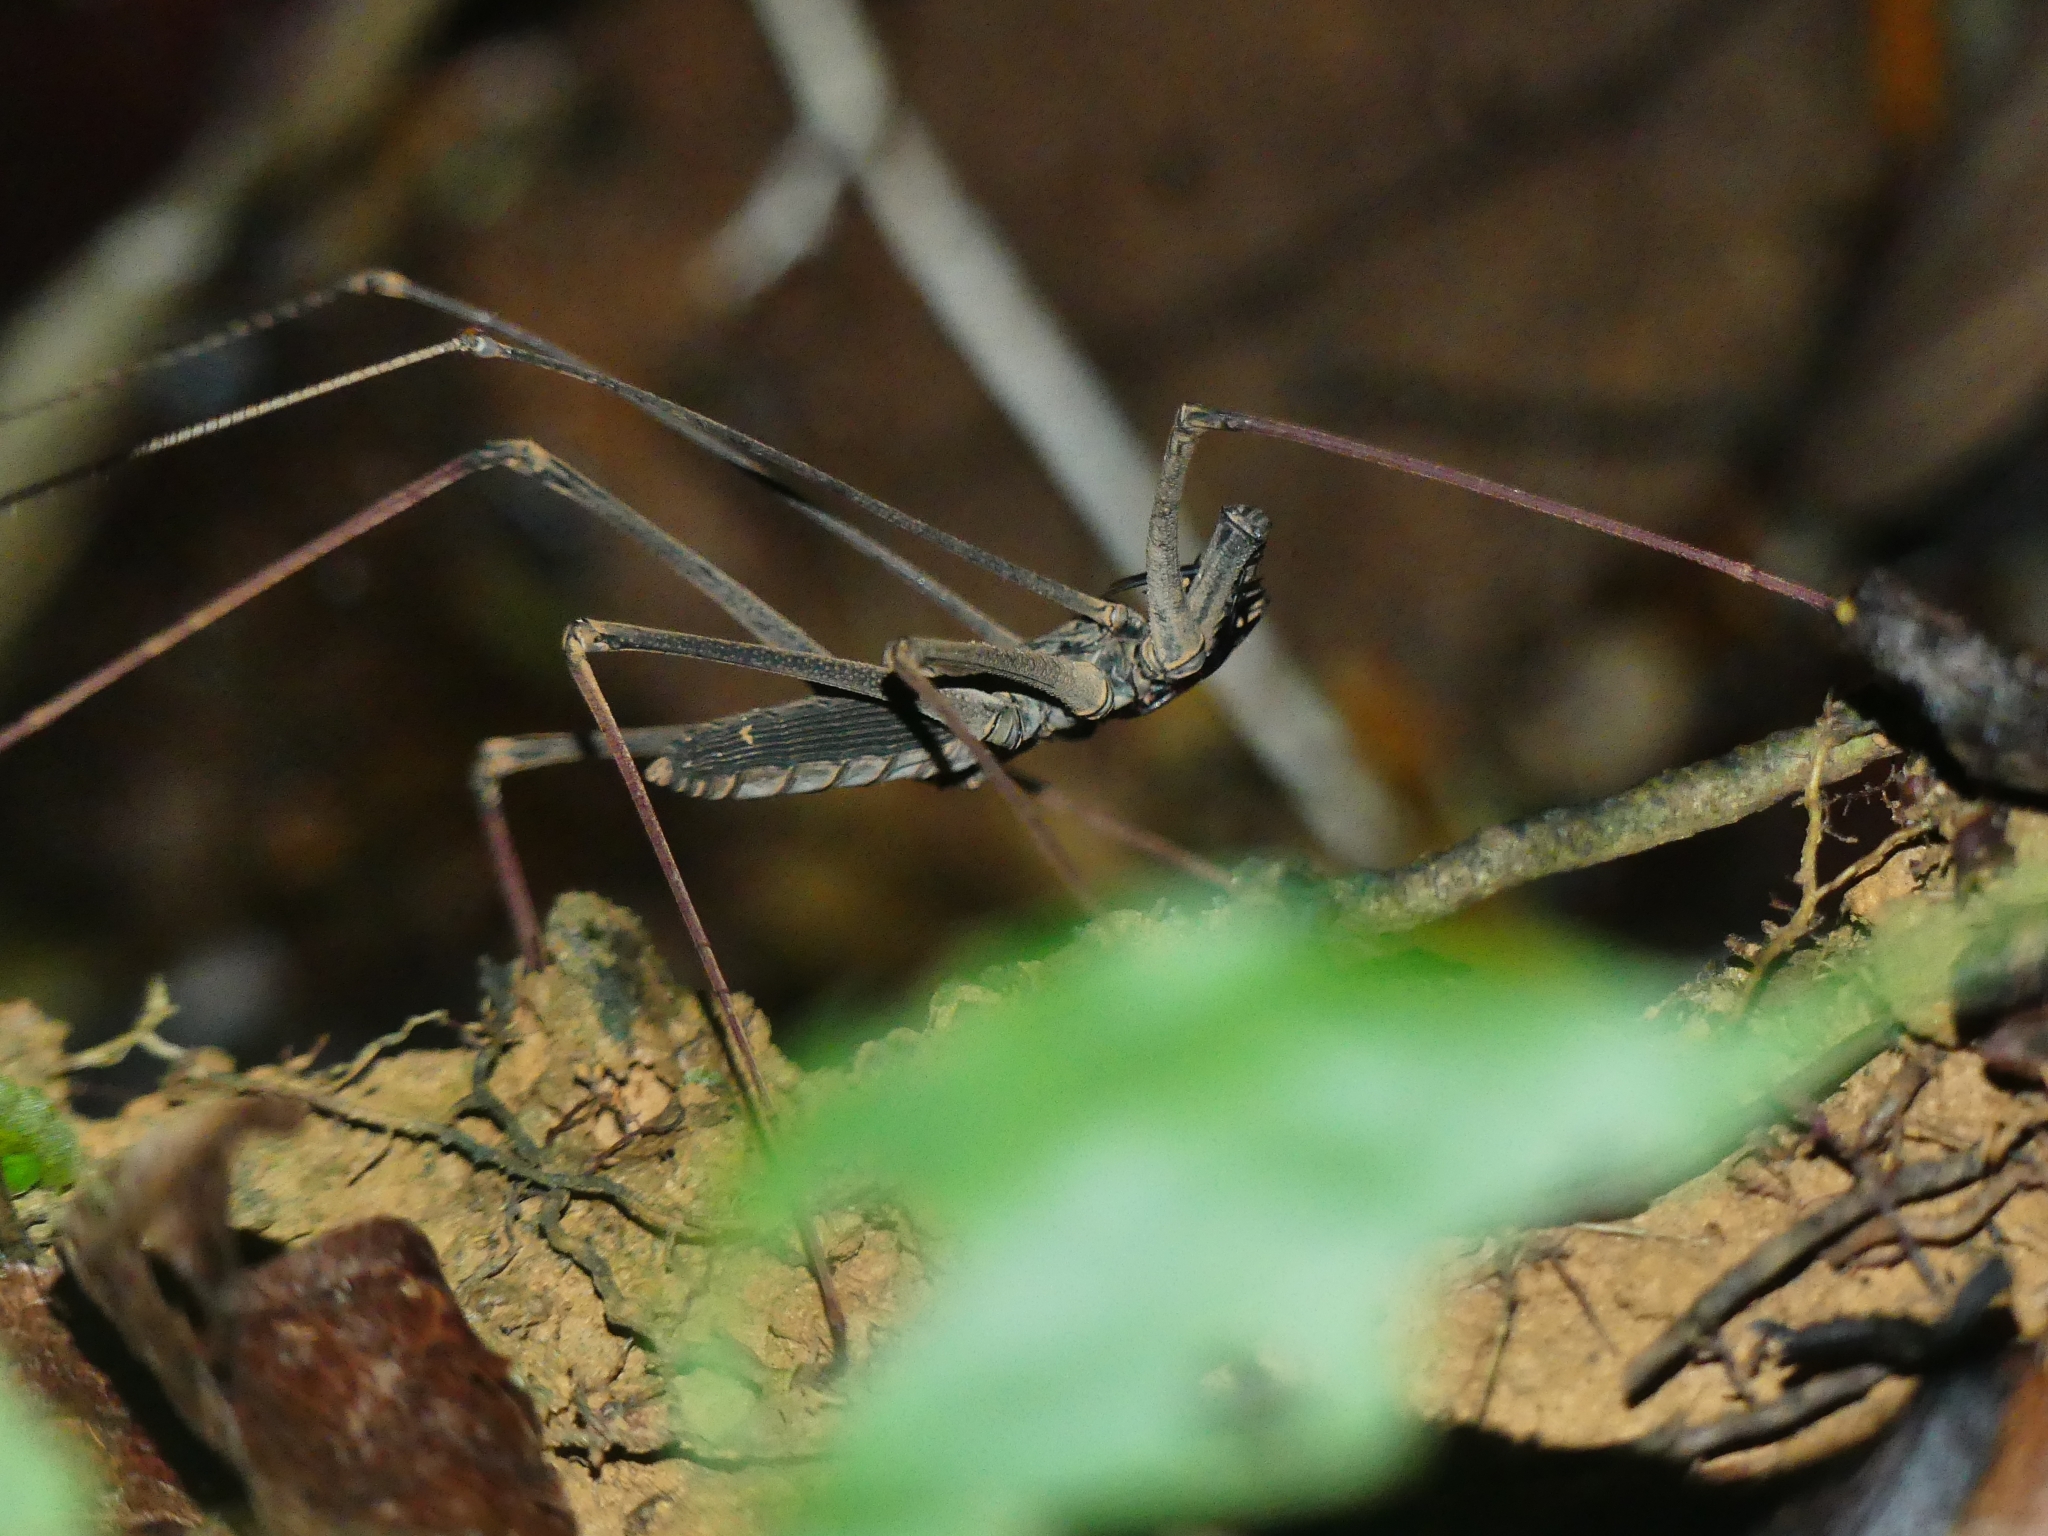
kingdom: Animalia
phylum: Arthropoda
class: Arachnida
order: Amblypygi
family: Phrynidae
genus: Heterophrynus
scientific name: Heterophrynus
